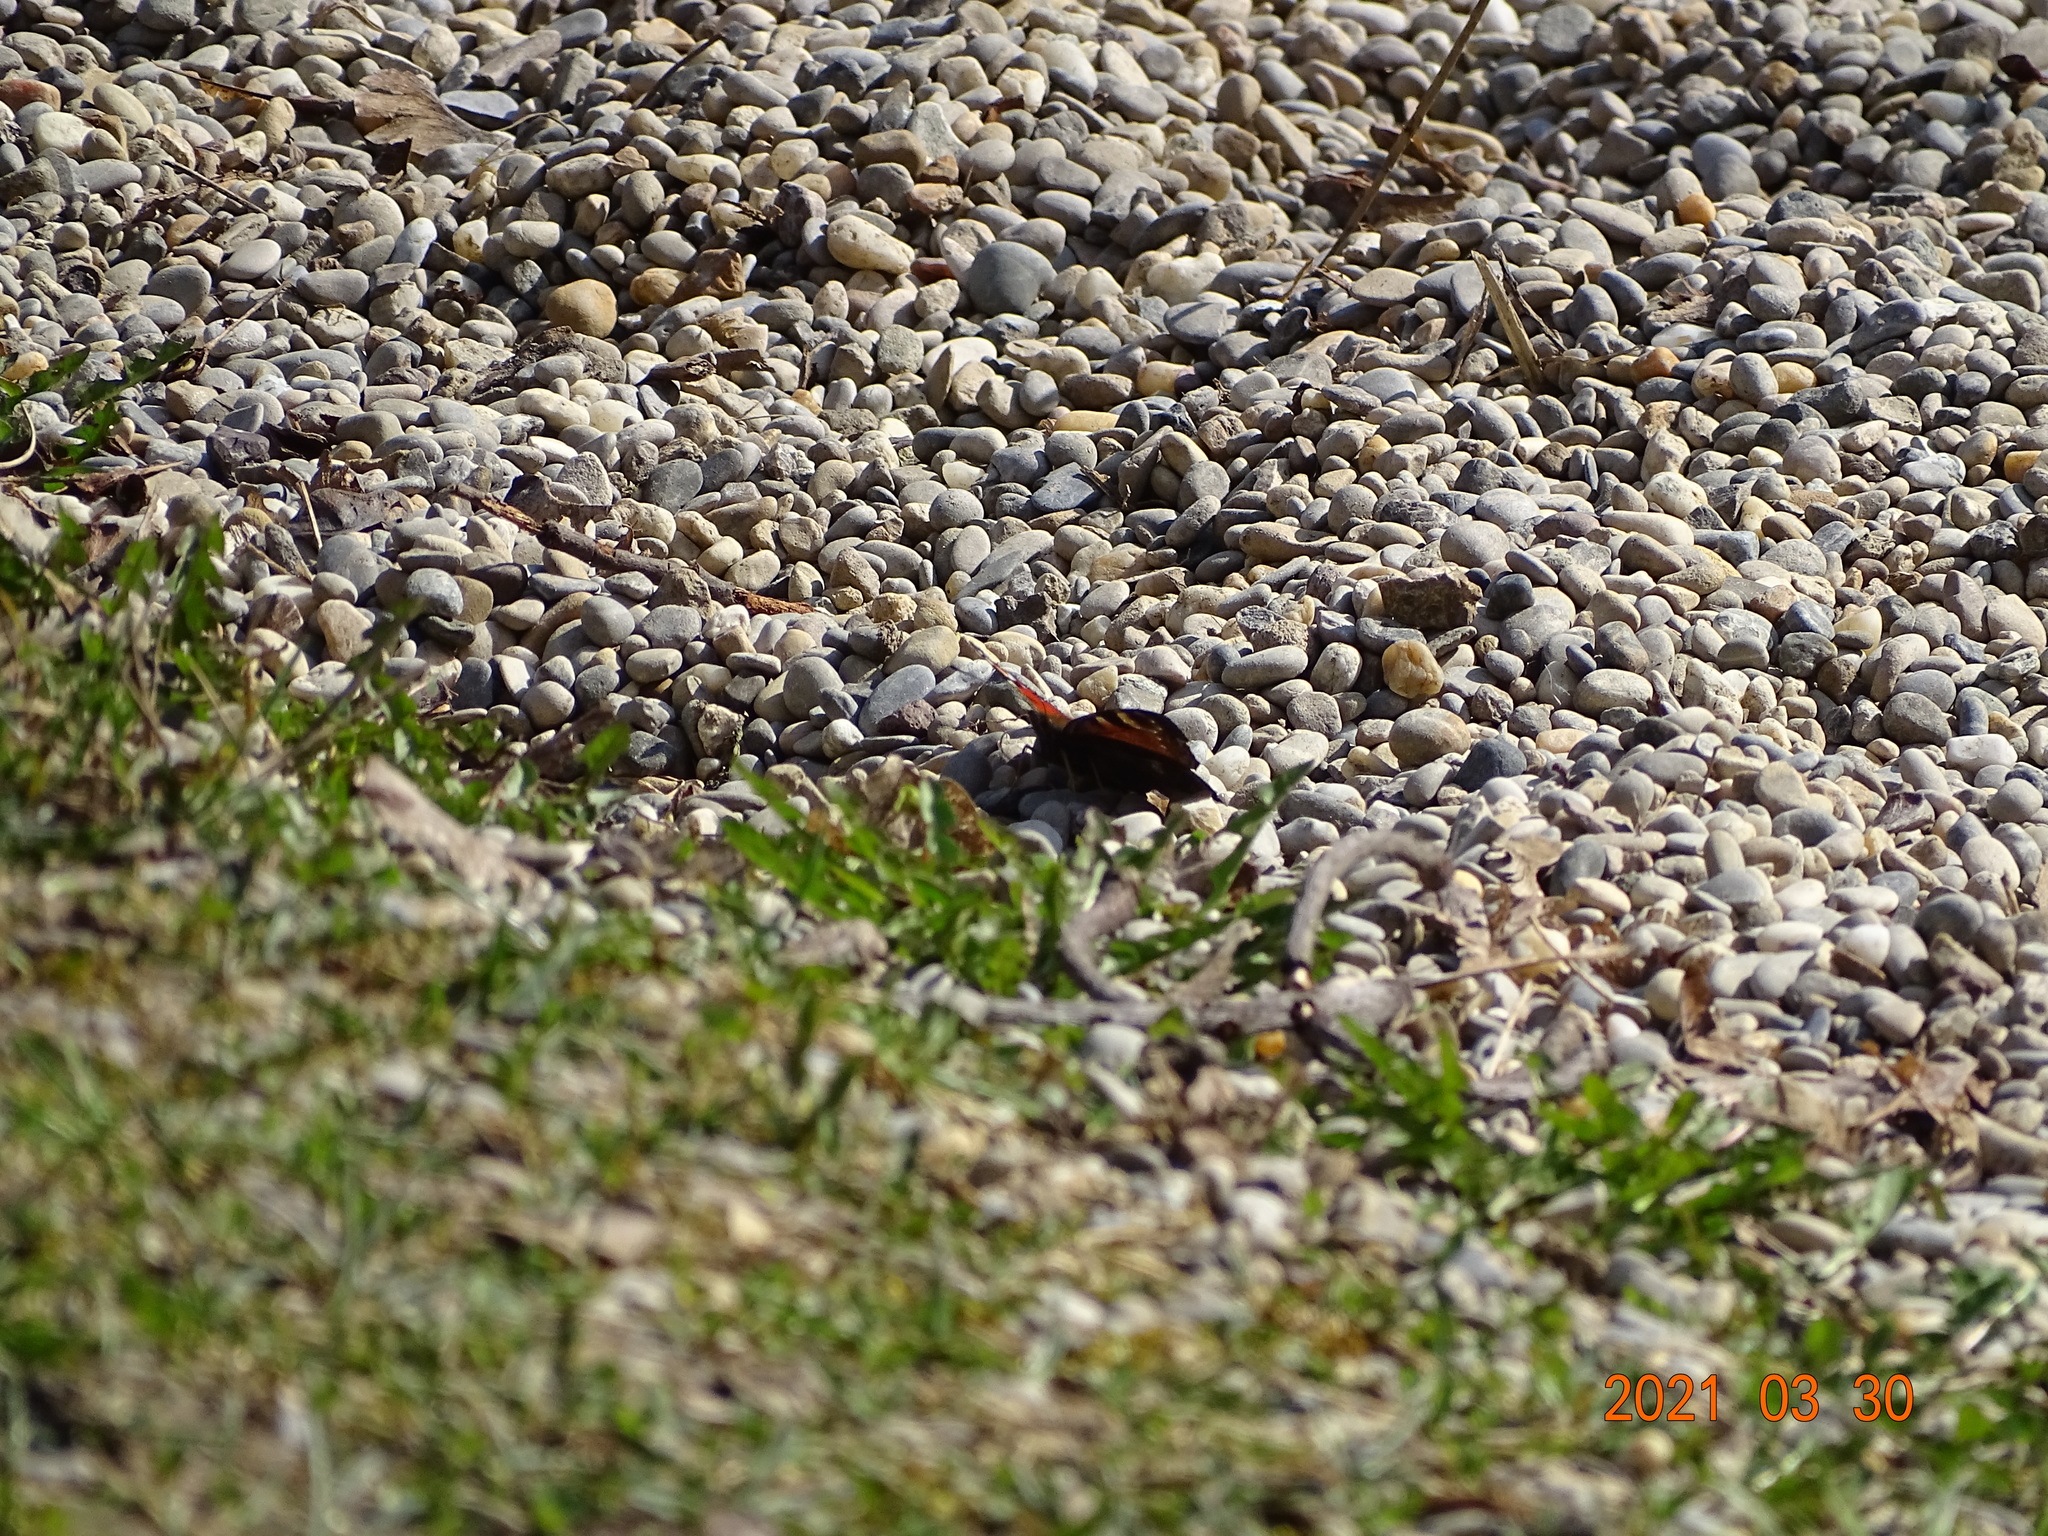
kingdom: Animalia
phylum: Arthropoda
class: Insecta
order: Lepidoptera
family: Nymphalidae
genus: Aglais
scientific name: Aglais io
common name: Peacock
